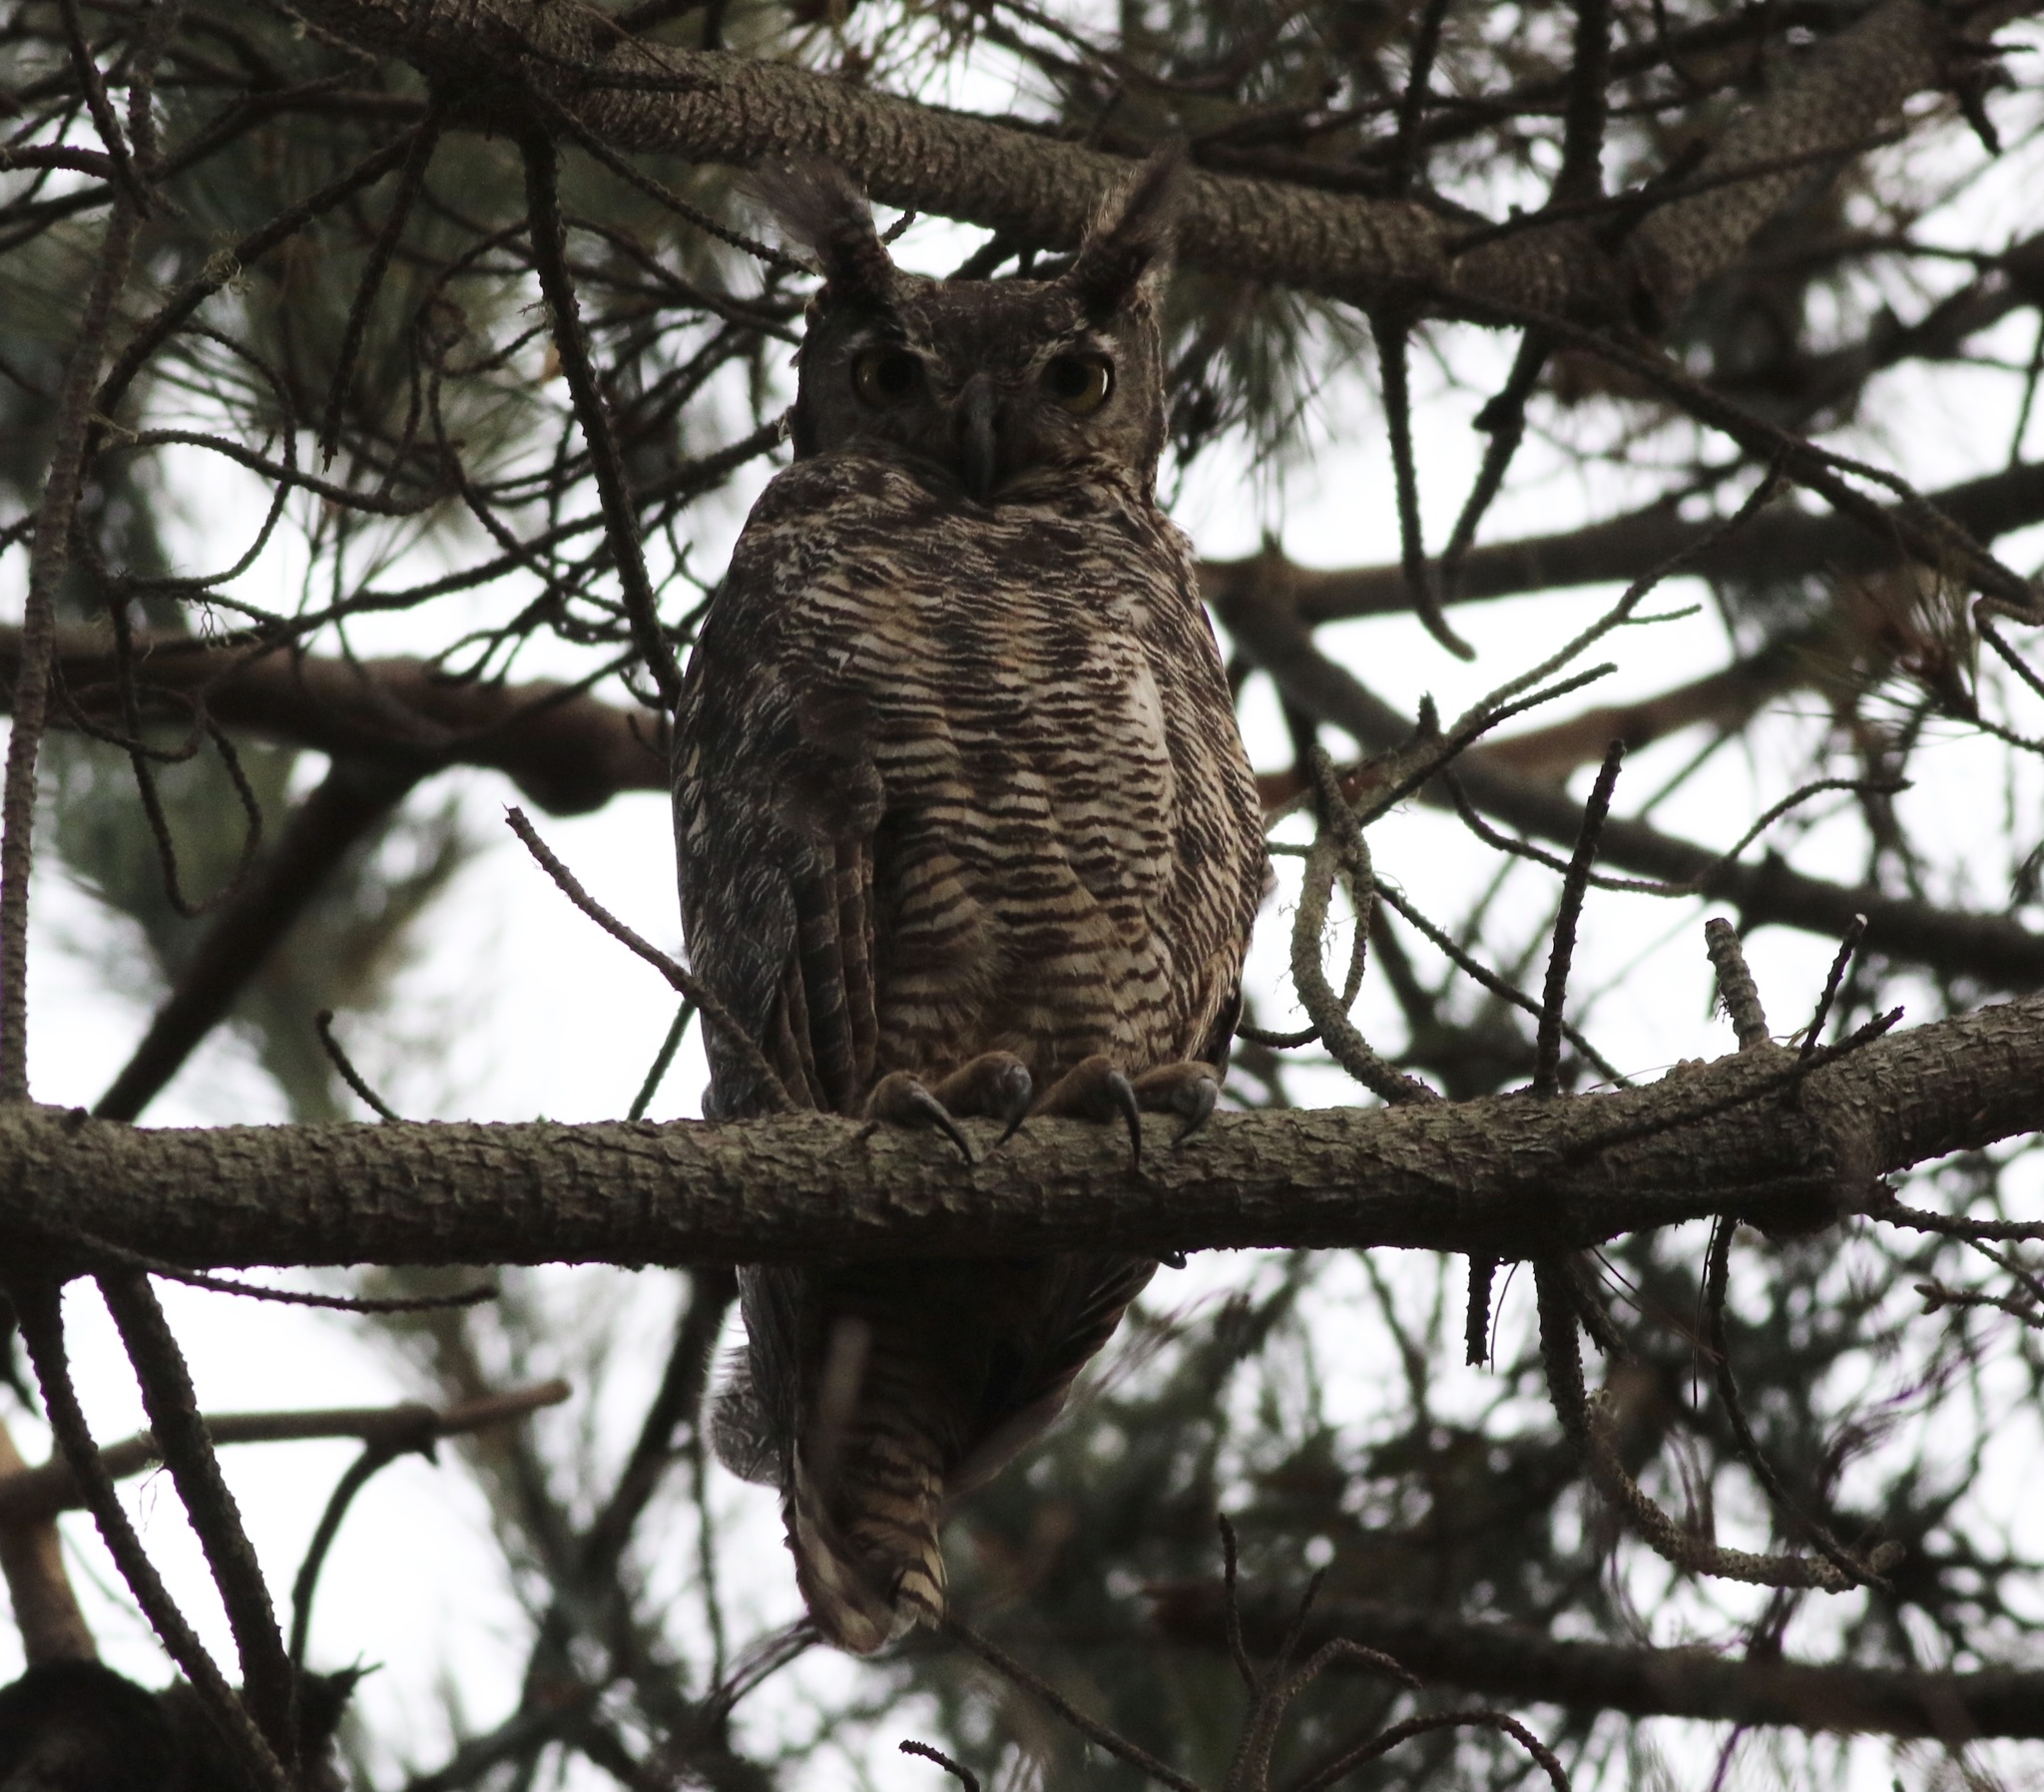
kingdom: Animalia
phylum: Chordata
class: Aves
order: Strigiformes
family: Strigidae
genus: Bubo
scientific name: Bubo virginianus
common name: Great horned owl
